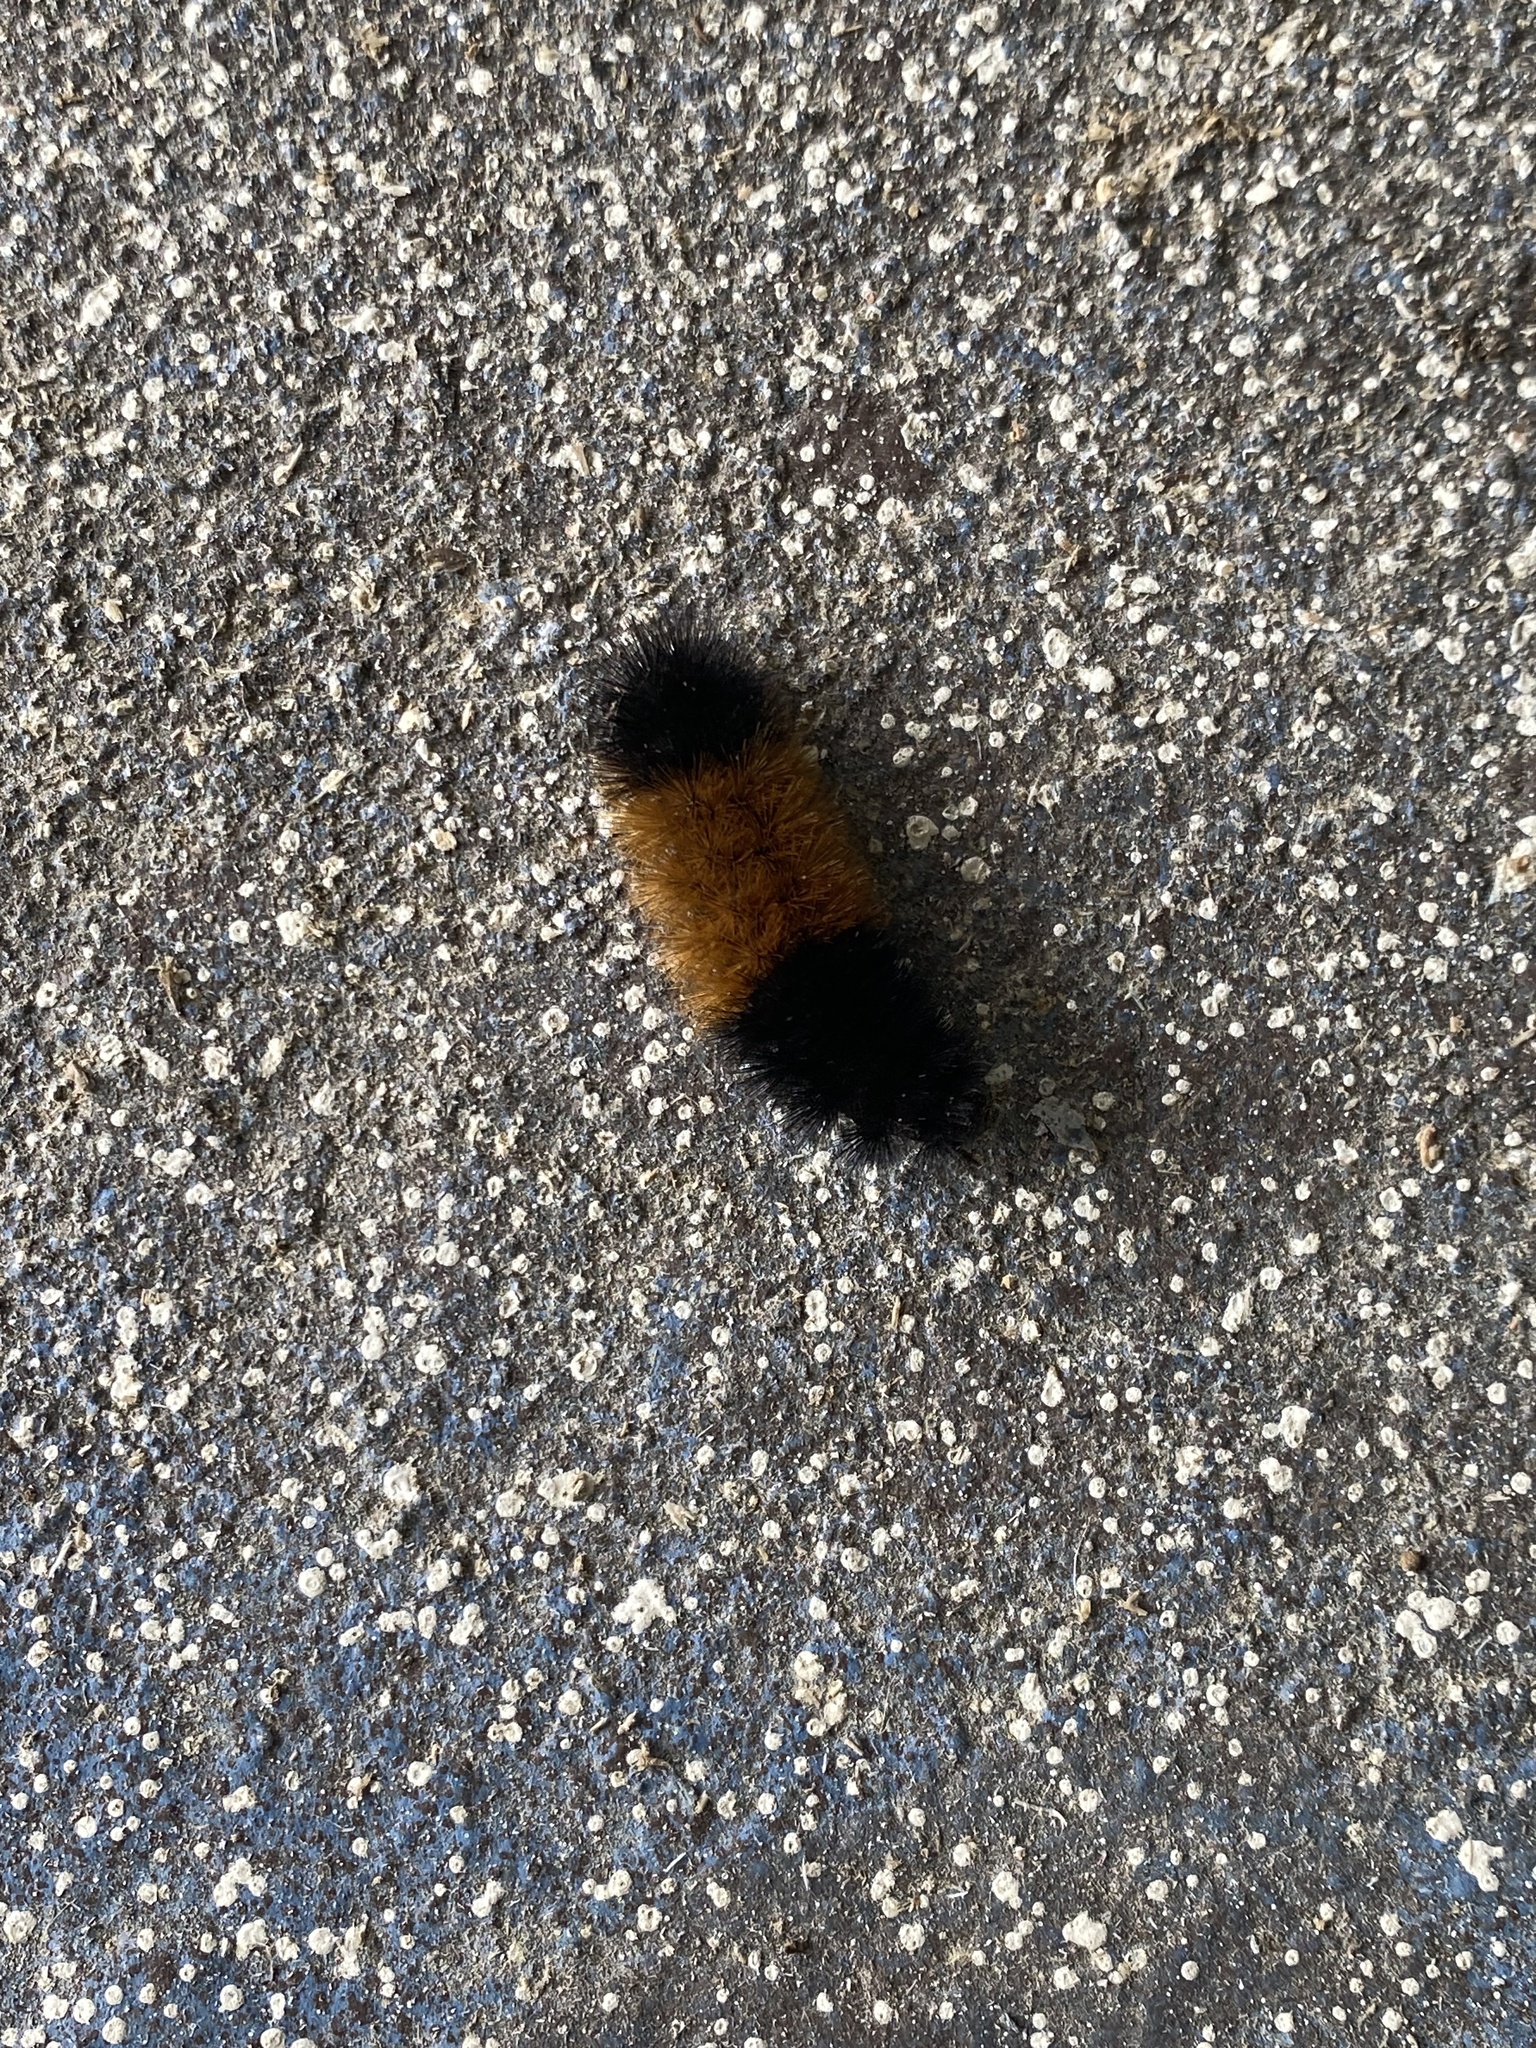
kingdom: Animalia
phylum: Arthropoda
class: Insecta
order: Lepidoptera
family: Erebidae
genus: Pyrrharctia
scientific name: Pyrrharctia isabella
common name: Isabella tiger moth
